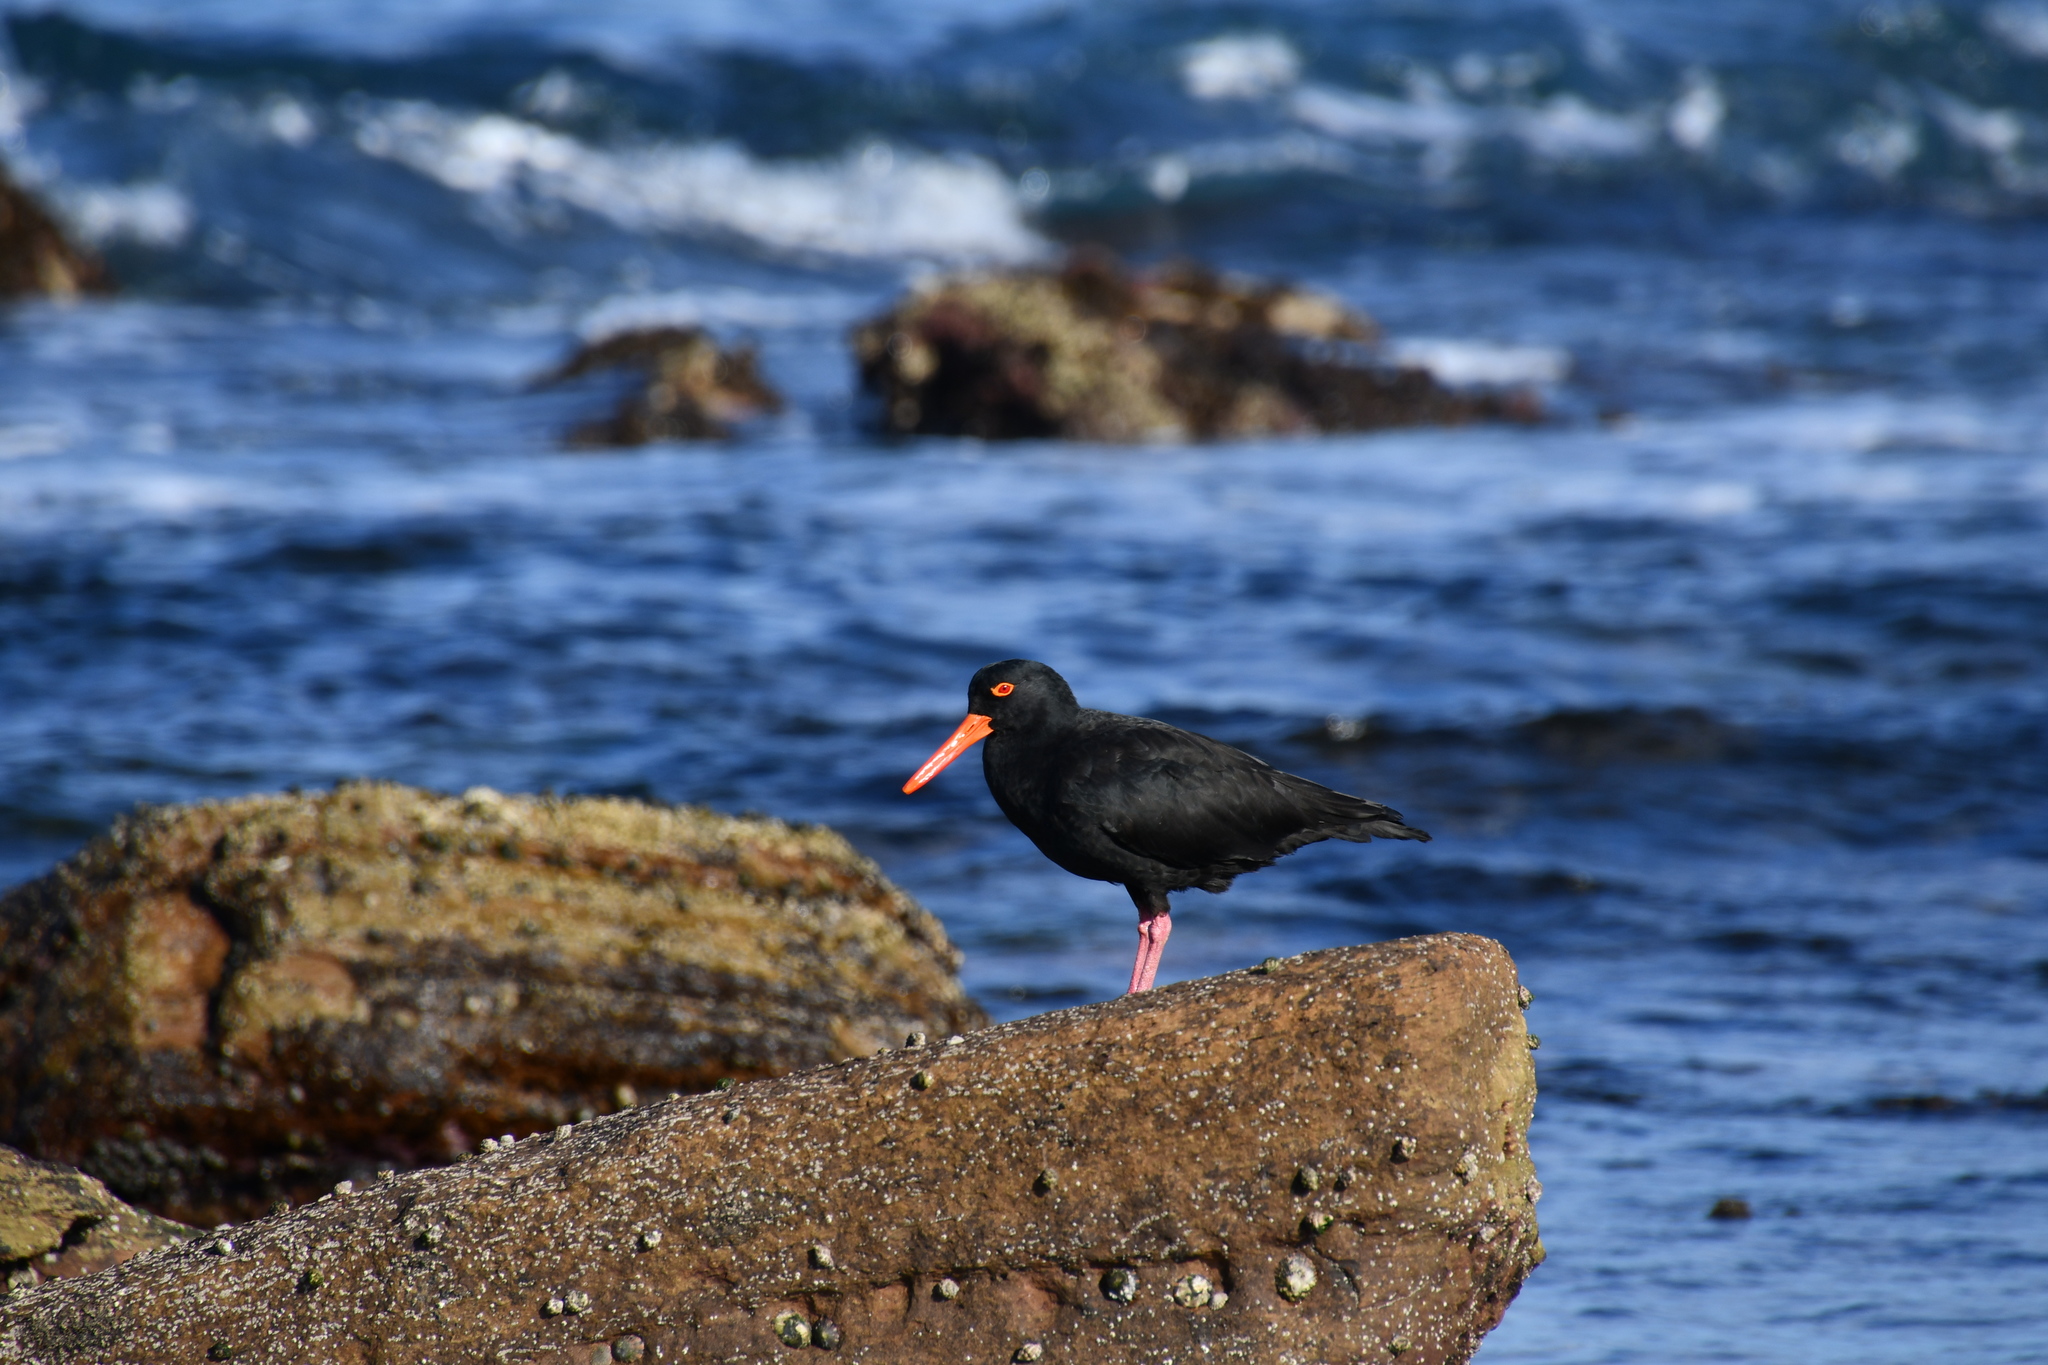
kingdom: Animalia
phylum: Chordata
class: Aves
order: Charadriiformes
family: Haematopodidae
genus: Haematopus
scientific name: Haematopus fuliginosus
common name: Sooty oystercatcher
